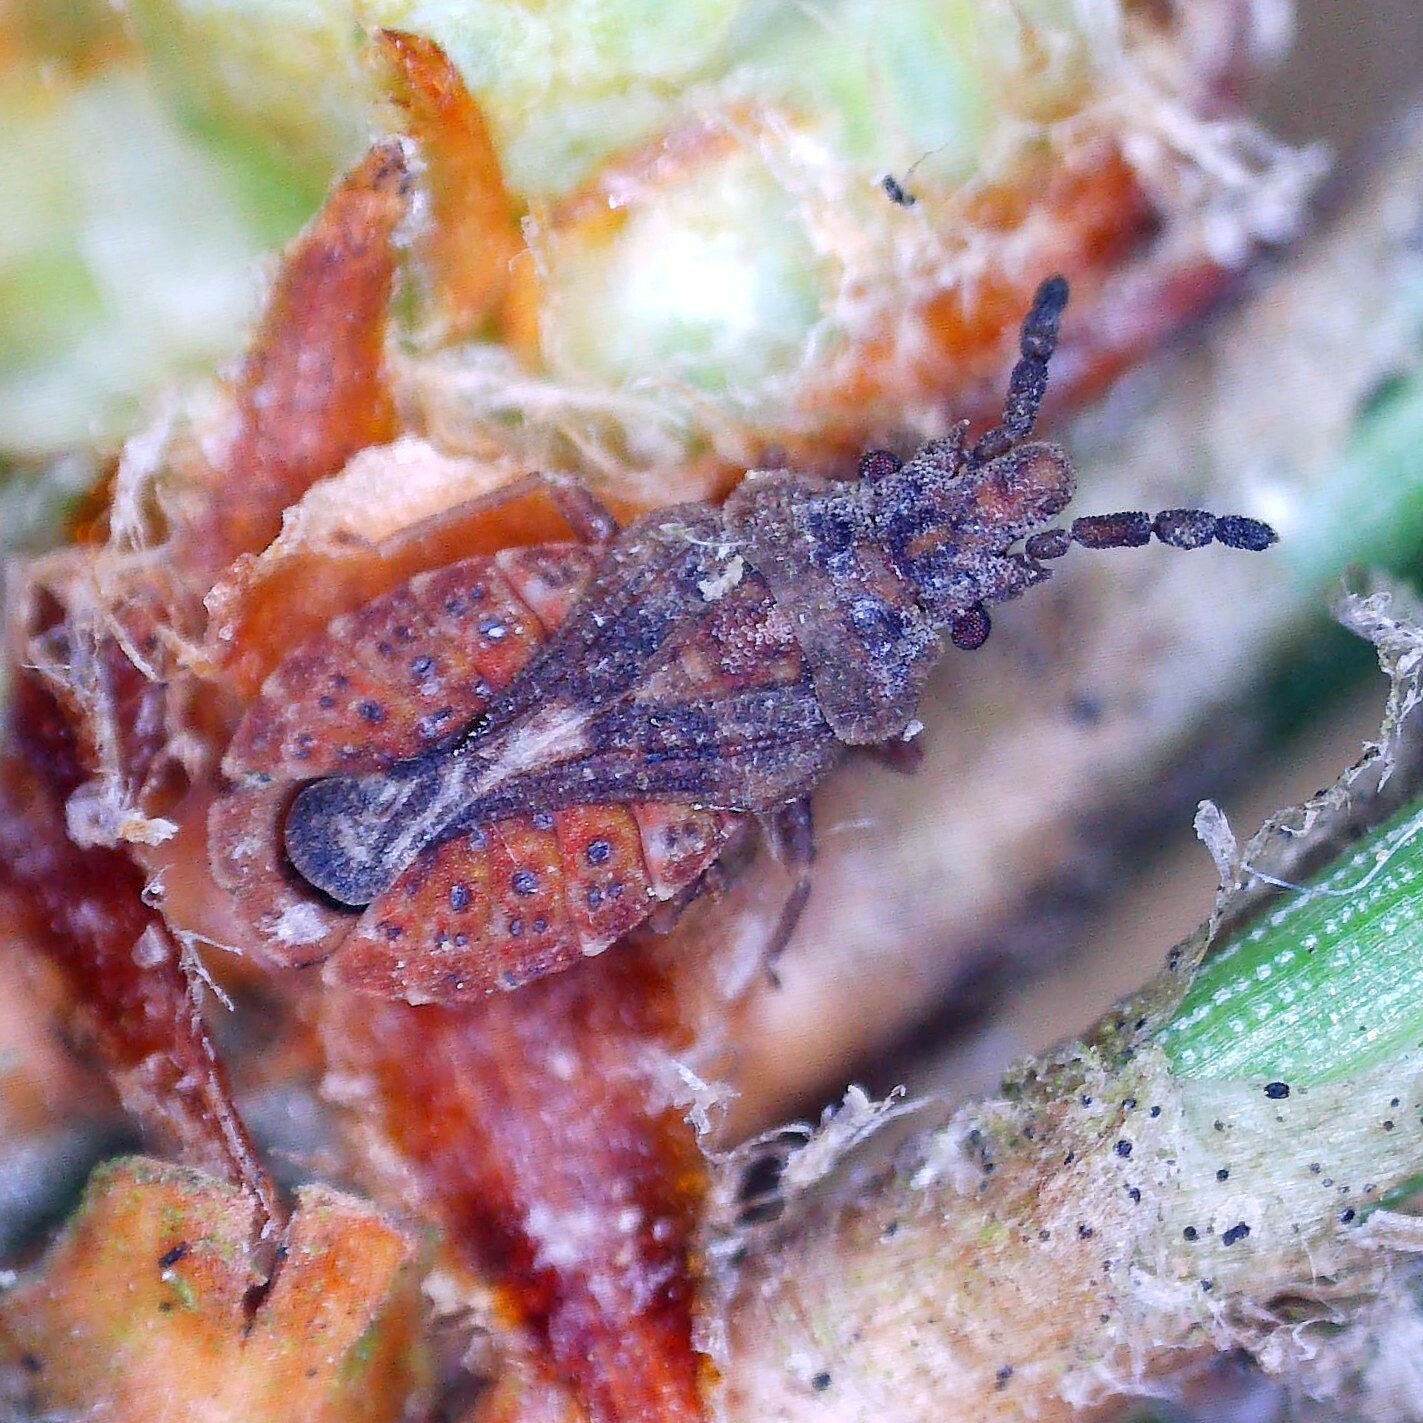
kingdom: Animalia
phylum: Arthropoda
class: Insecta
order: Hemiptera
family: Aradidae
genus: Aradus
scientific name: Aradus cinnamomeus
